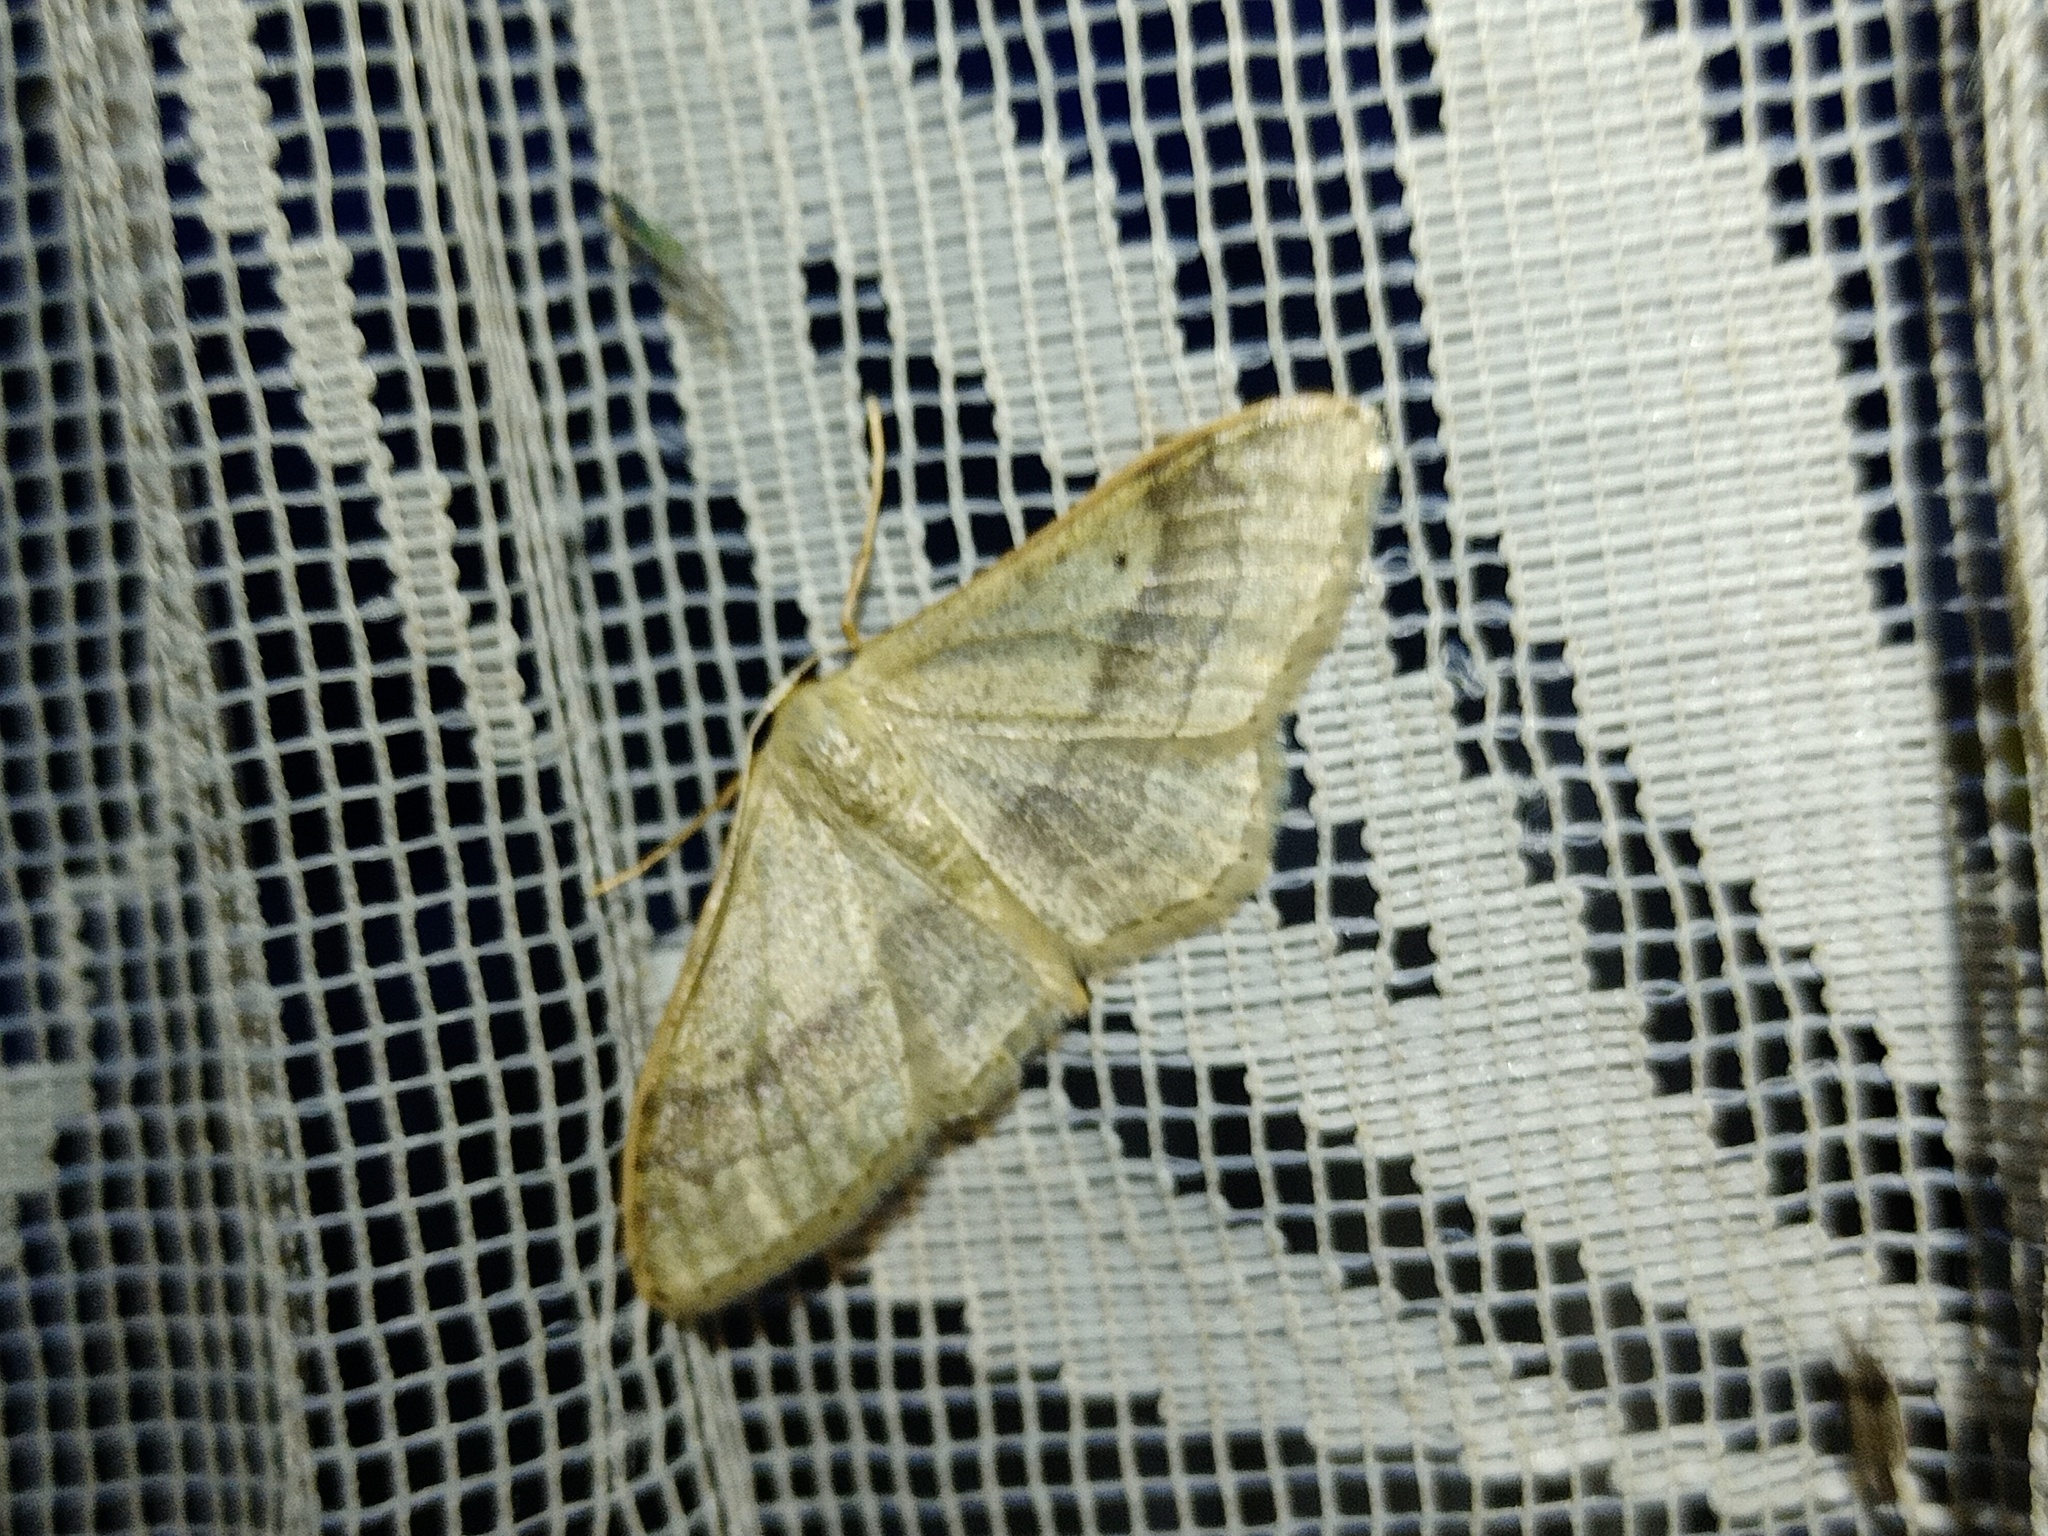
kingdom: Animalia
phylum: Arthropoda
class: Insecta
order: Lepidoptera
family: Geometridae
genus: Idaea
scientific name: Idaea aversata
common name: Riband wave
